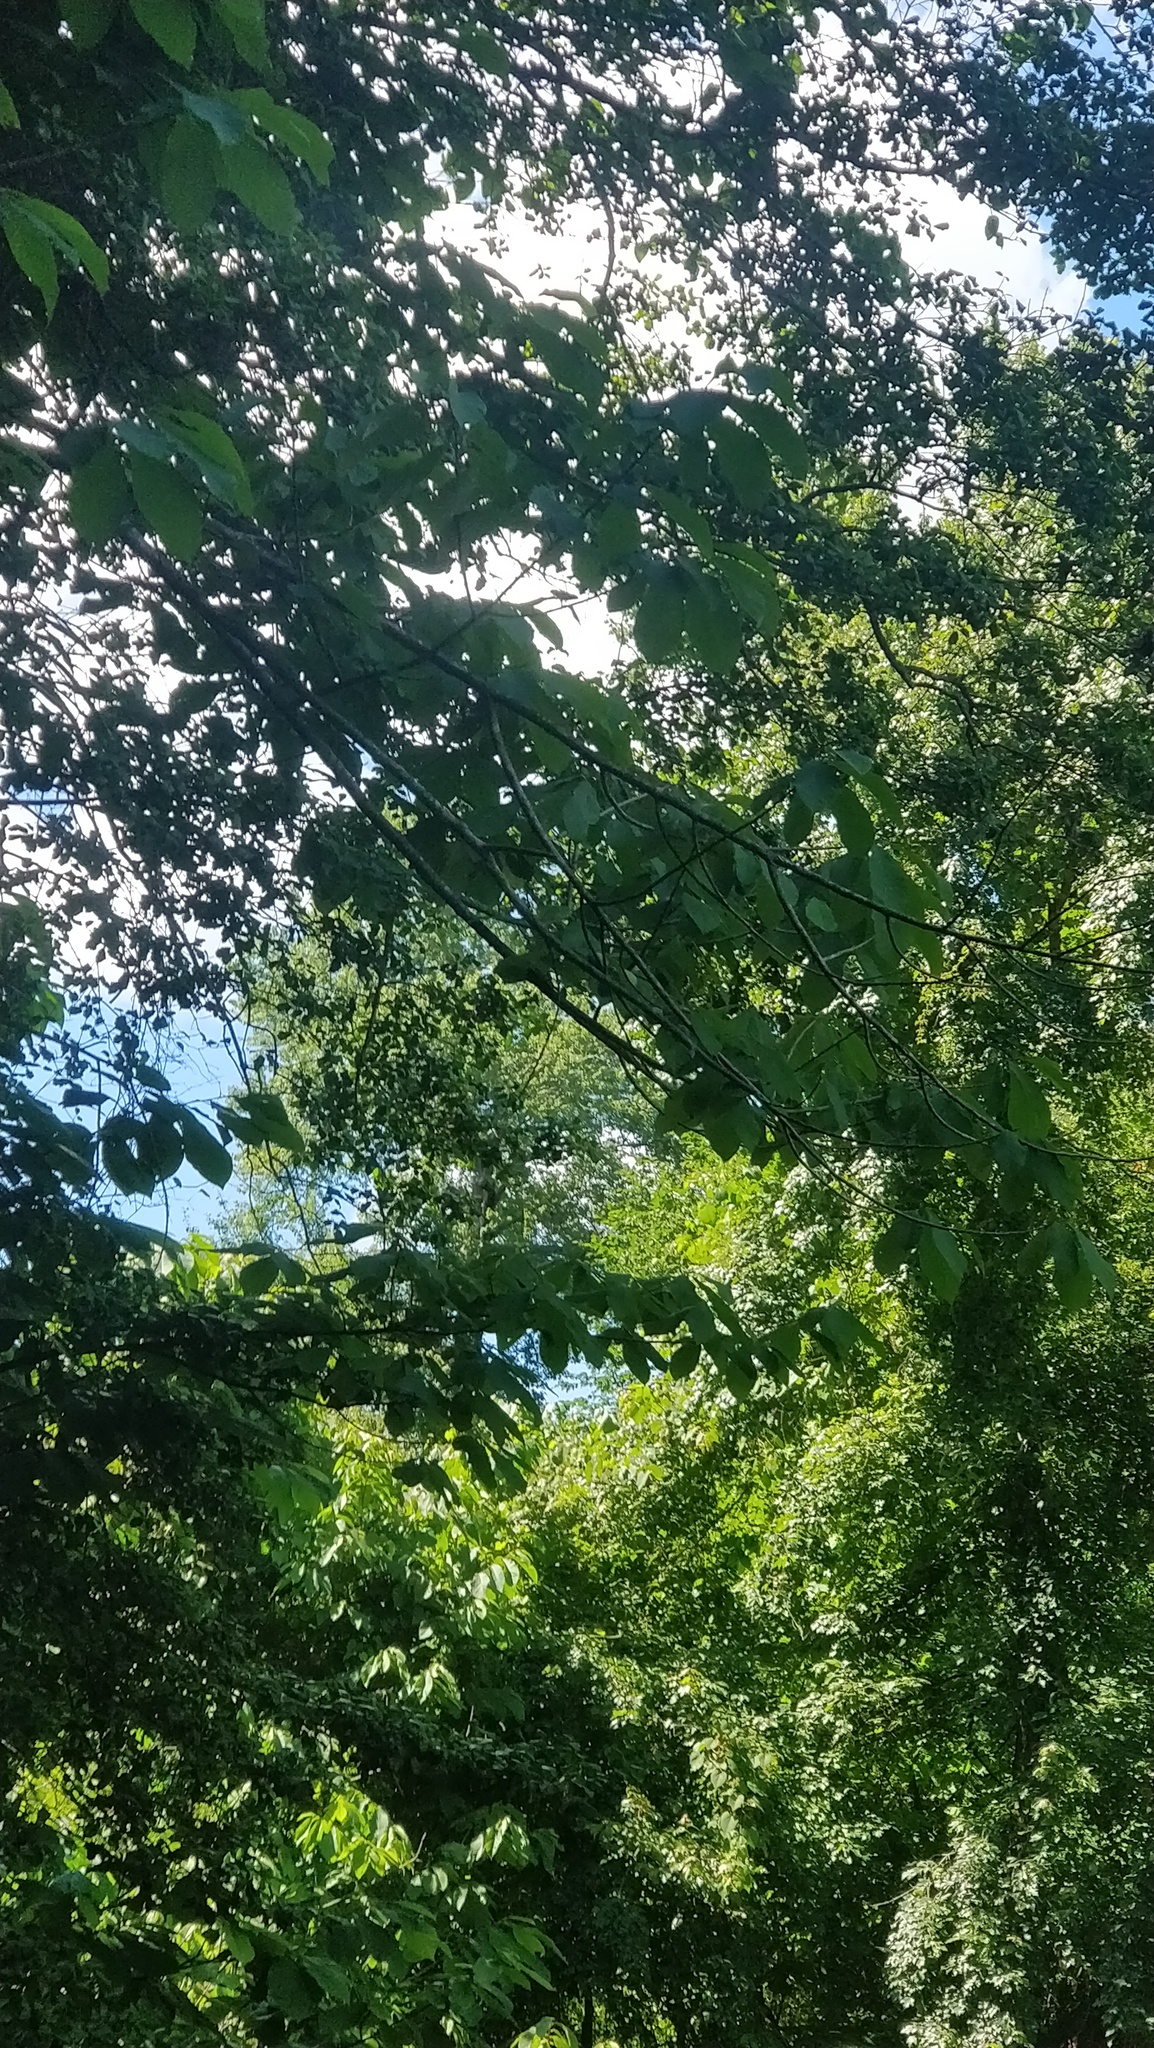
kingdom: Plantae
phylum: Tracheophyta
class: Magnoliopsida
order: Magnoliales
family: Annonaceae
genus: Asimina
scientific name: Asimina triloba
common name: Dog-banana
